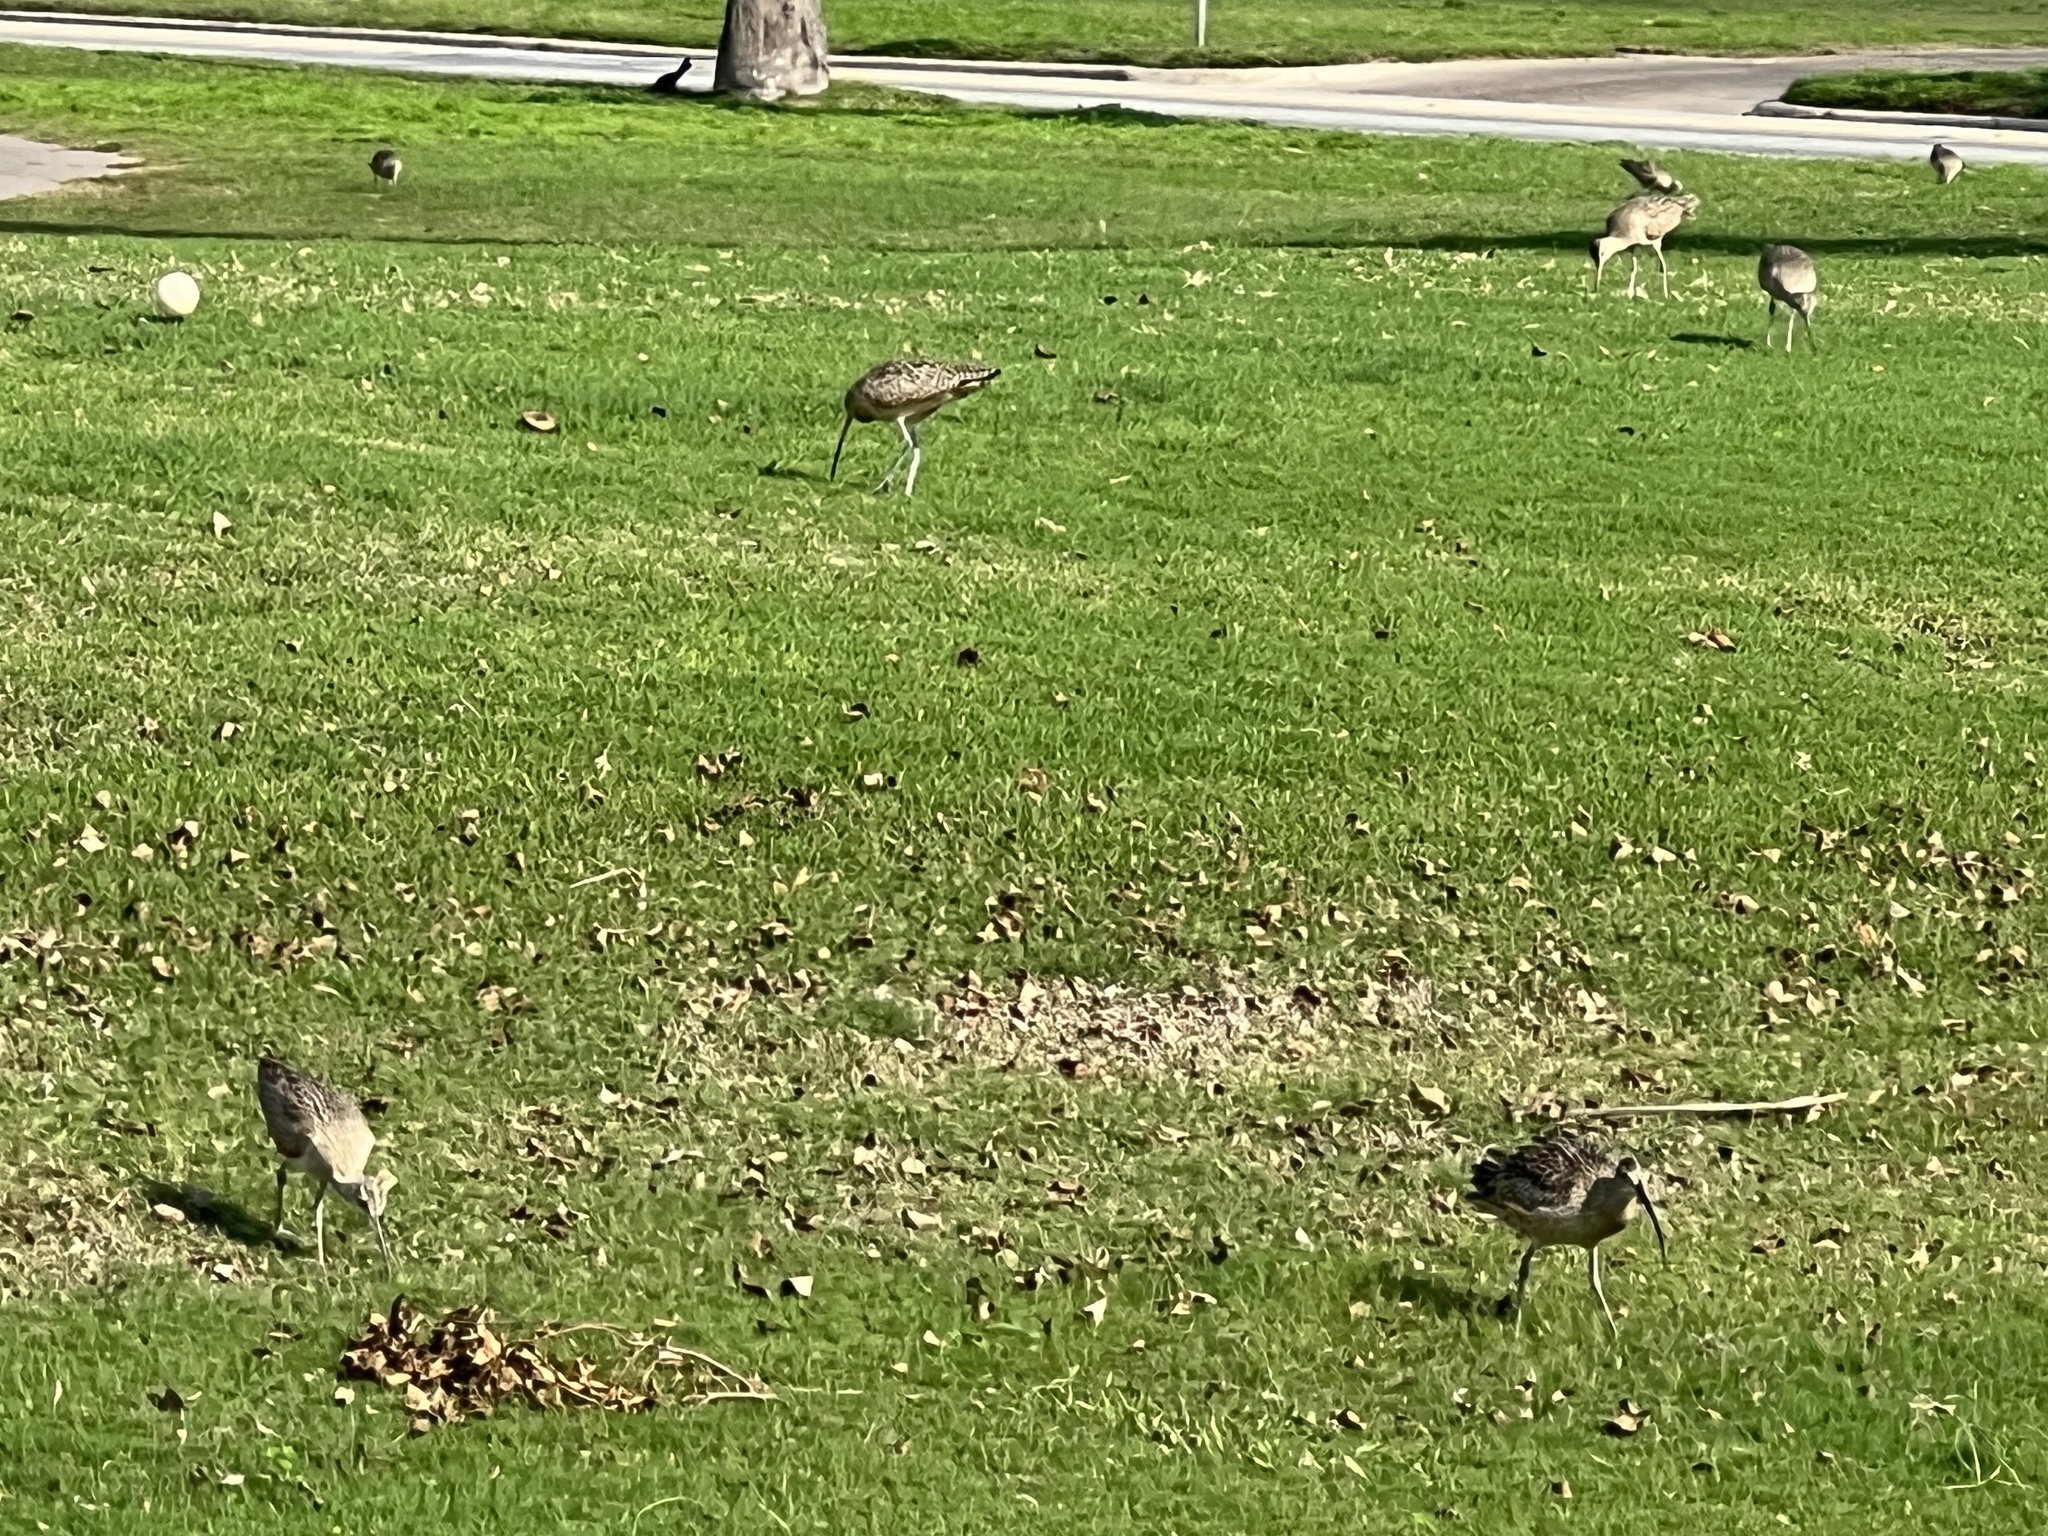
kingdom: Animalia
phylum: Chordata
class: Aves
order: Charadriiformes
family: Scolopacidae
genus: Numenius
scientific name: Numenius americanus
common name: Long-billed curlew
